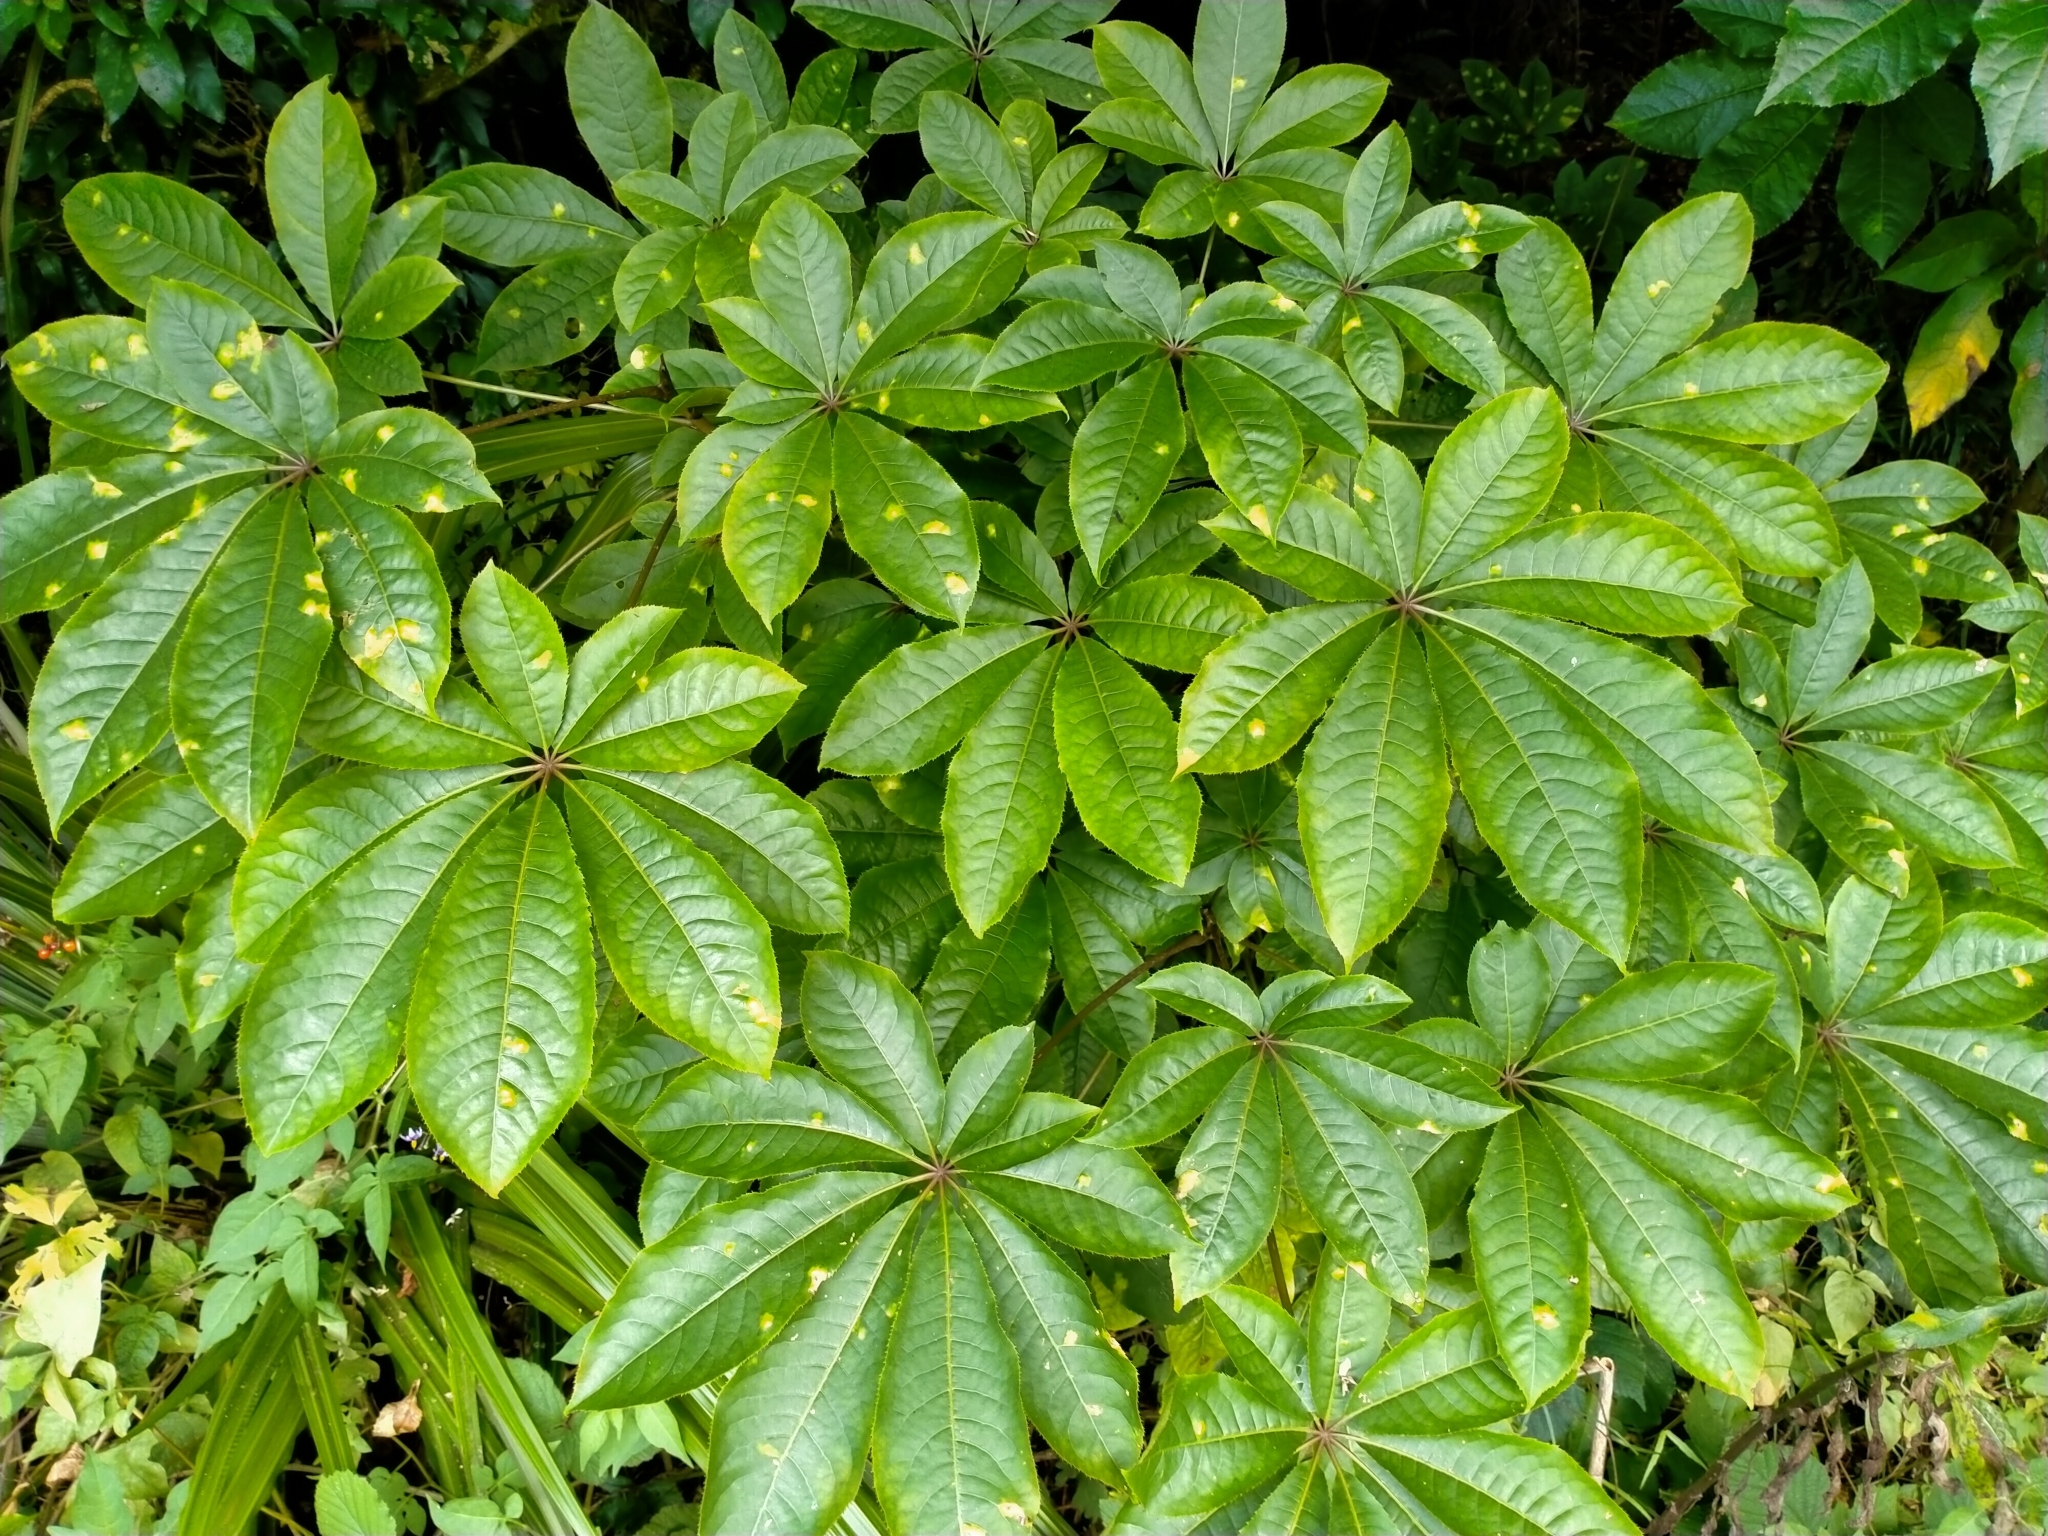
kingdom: Plantae
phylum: Tracheophyta
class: Magnoliopsida
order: Apiales
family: Araliaceae
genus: Schefflera
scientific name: Schefflera digitata
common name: Pate
